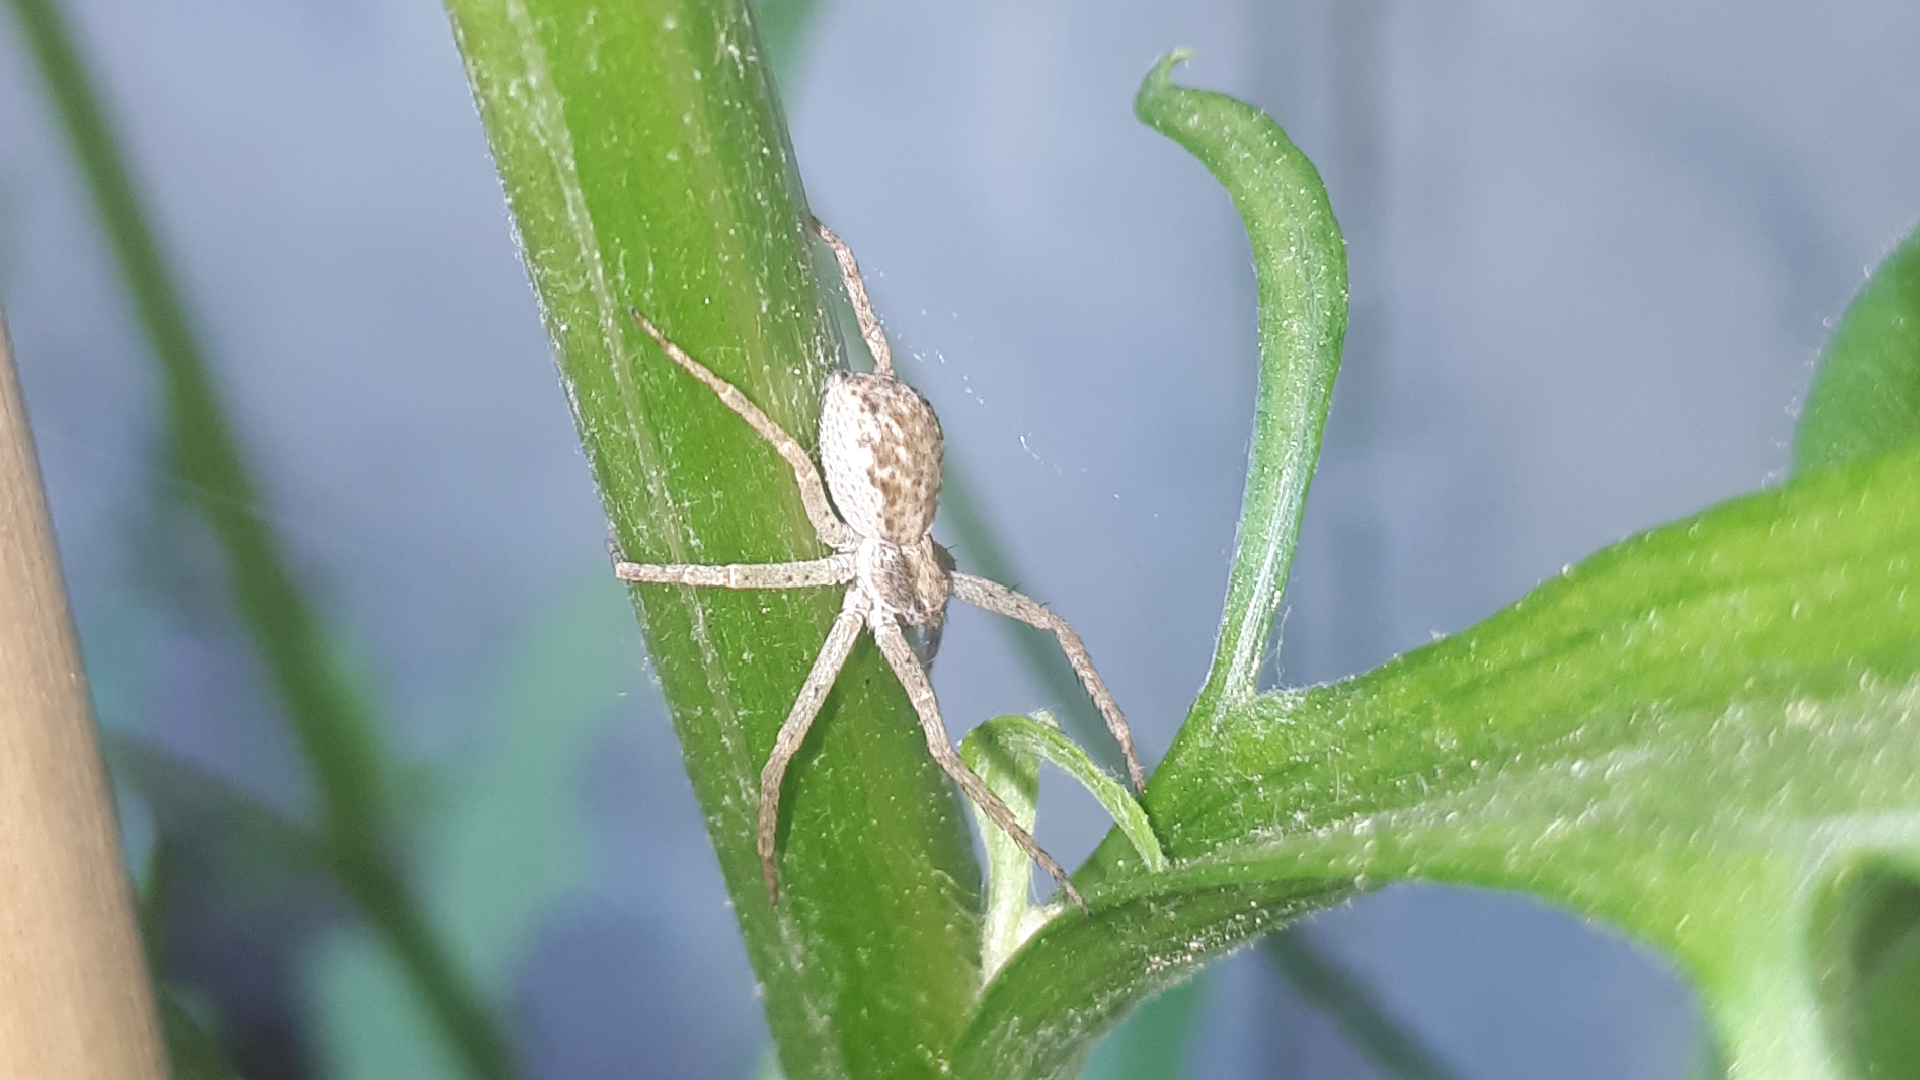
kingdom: Animalia
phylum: Arthropoda
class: Arachnida
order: Araneae
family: Philodromidae
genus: Philodromus
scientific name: Philodromus dispar
